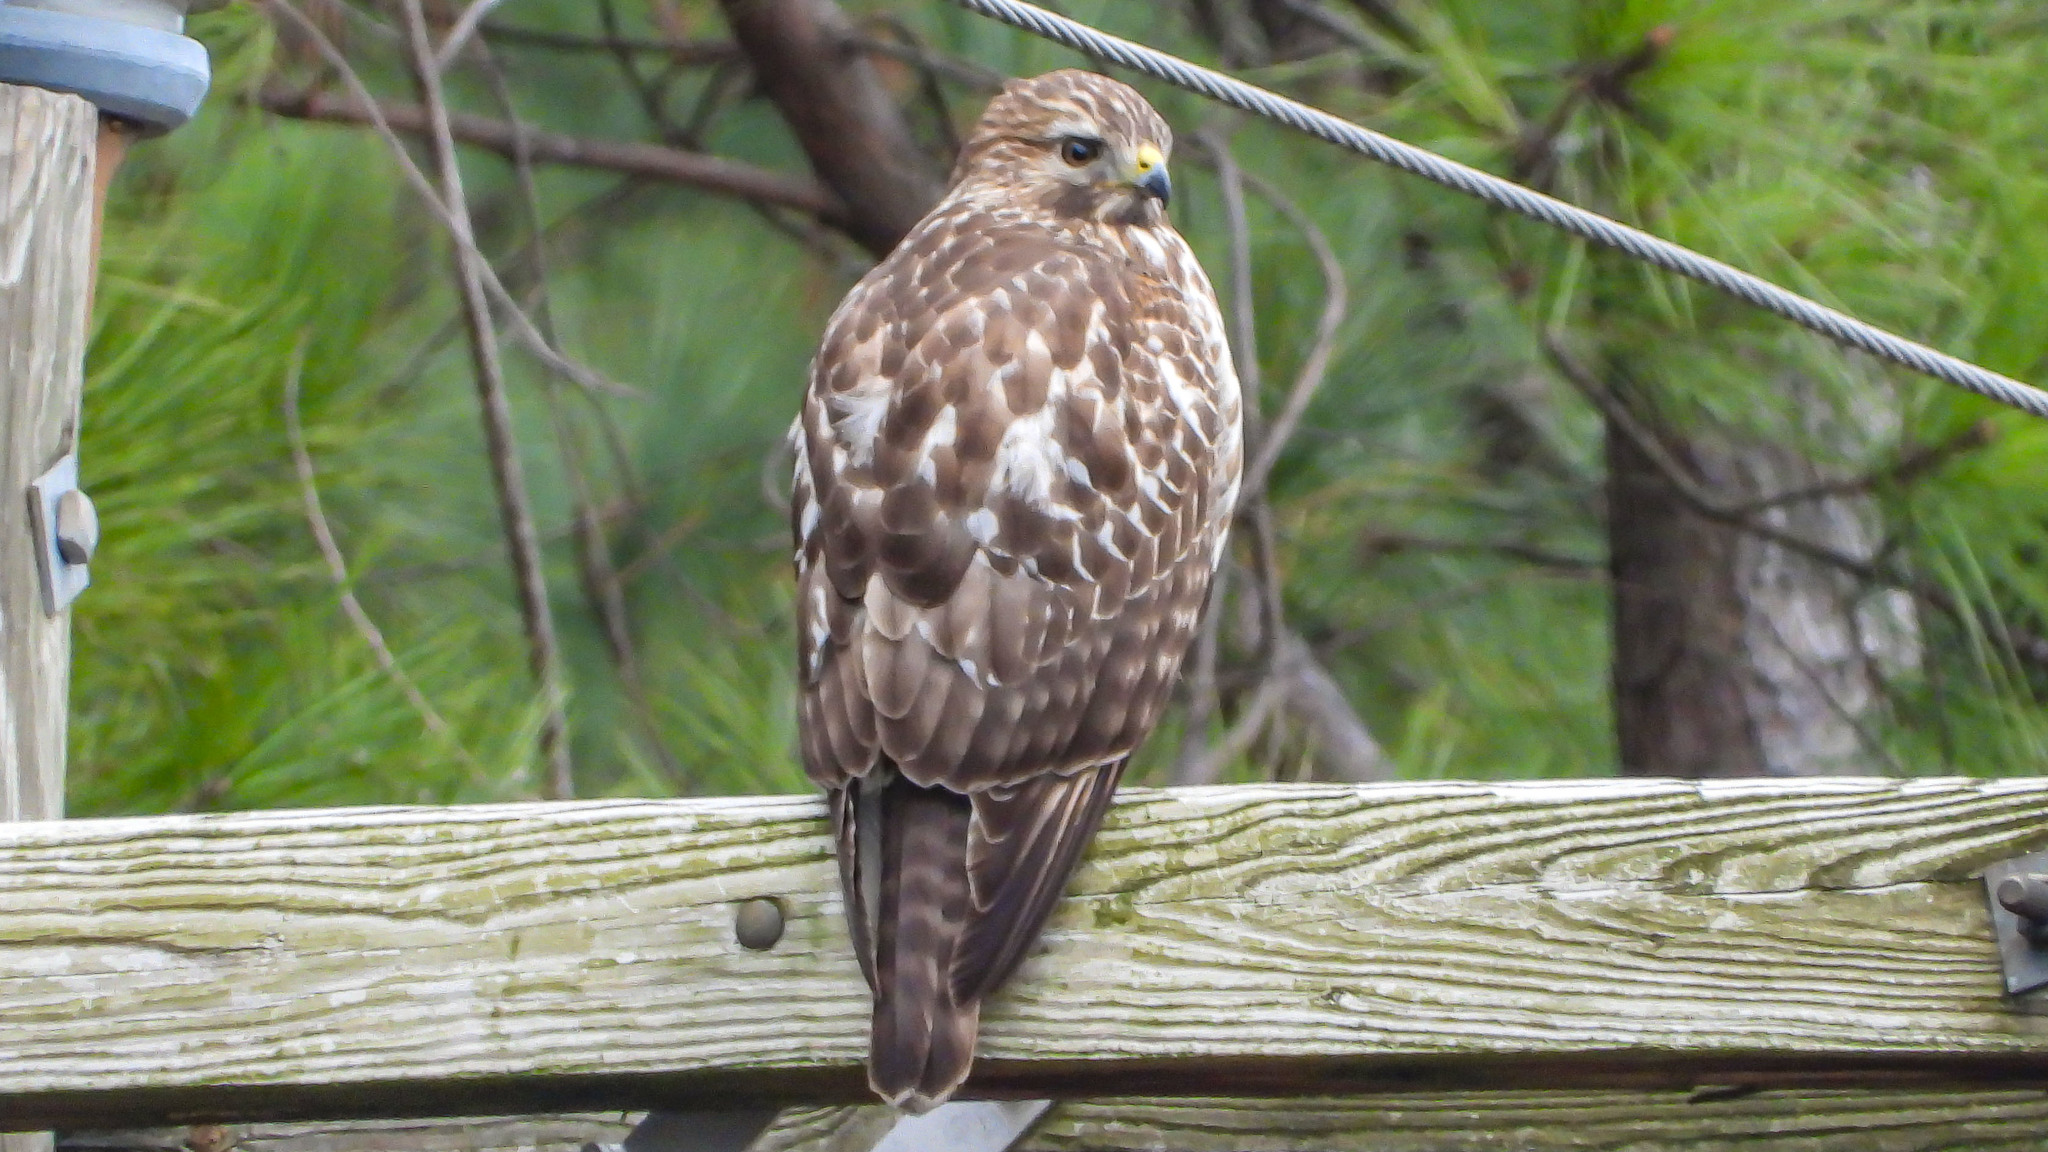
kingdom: Animalia
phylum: Chordata
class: Aves
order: Accipitriformes
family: Accipitridae
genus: Buteo
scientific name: Buteo lineatus
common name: Red-shouldered hawk
